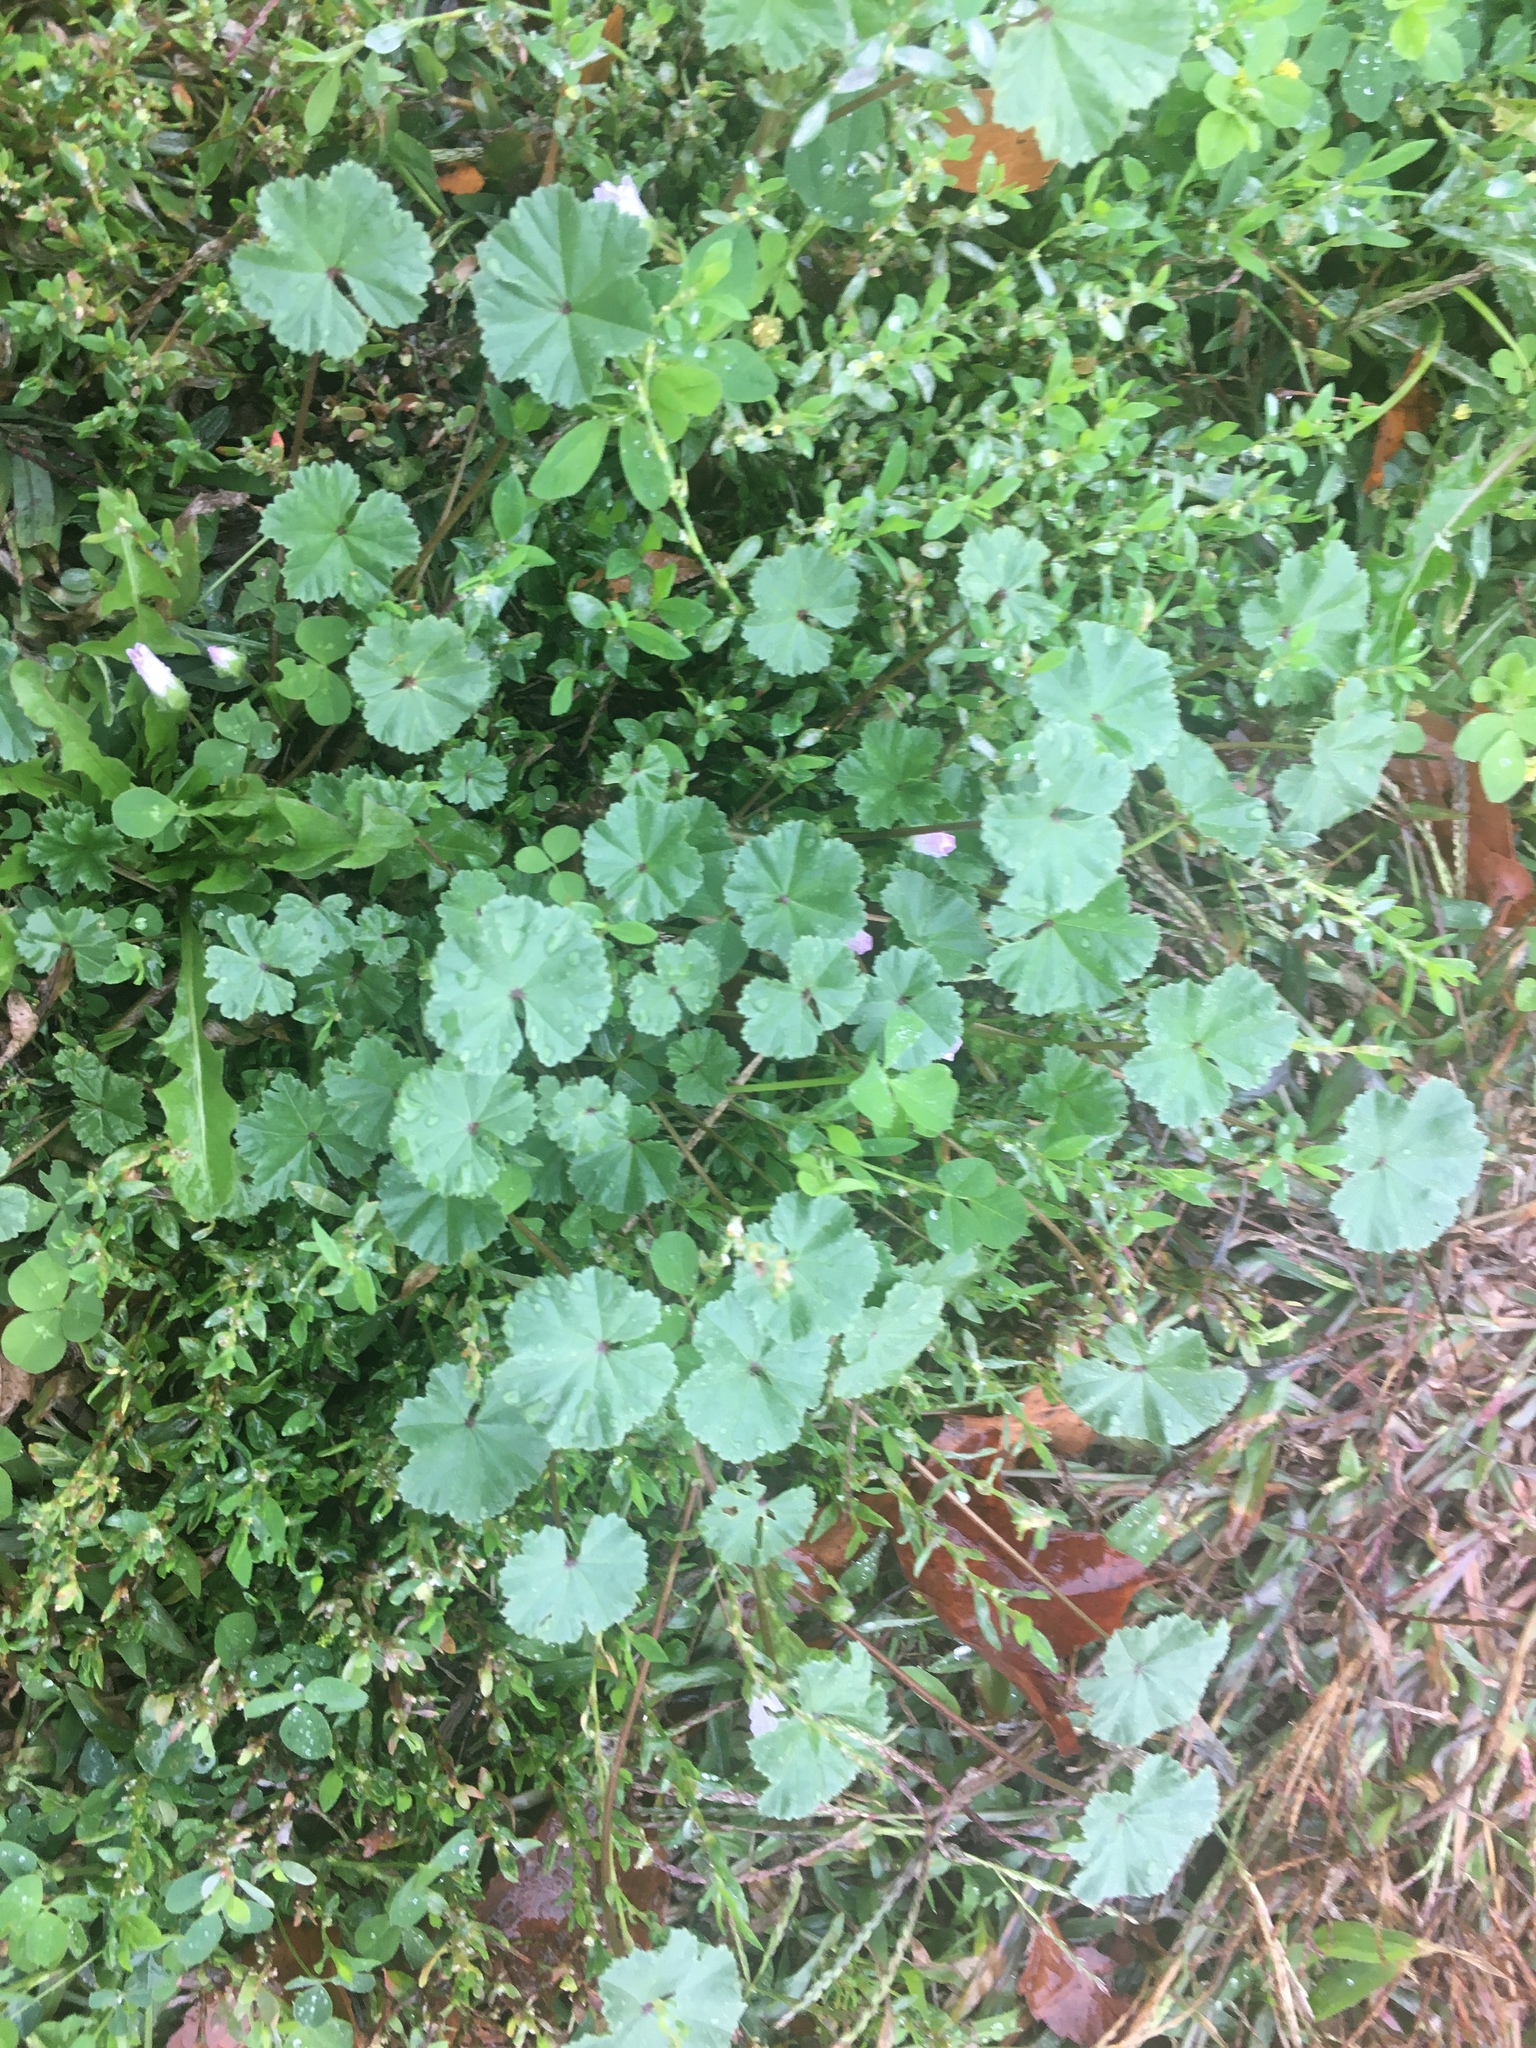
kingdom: Plantae
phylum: Tracheophyta
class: Magnoliopsida
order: Malvales
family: Malvaceae
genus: Malva
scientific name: Malva neglecta
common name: Common mallow
